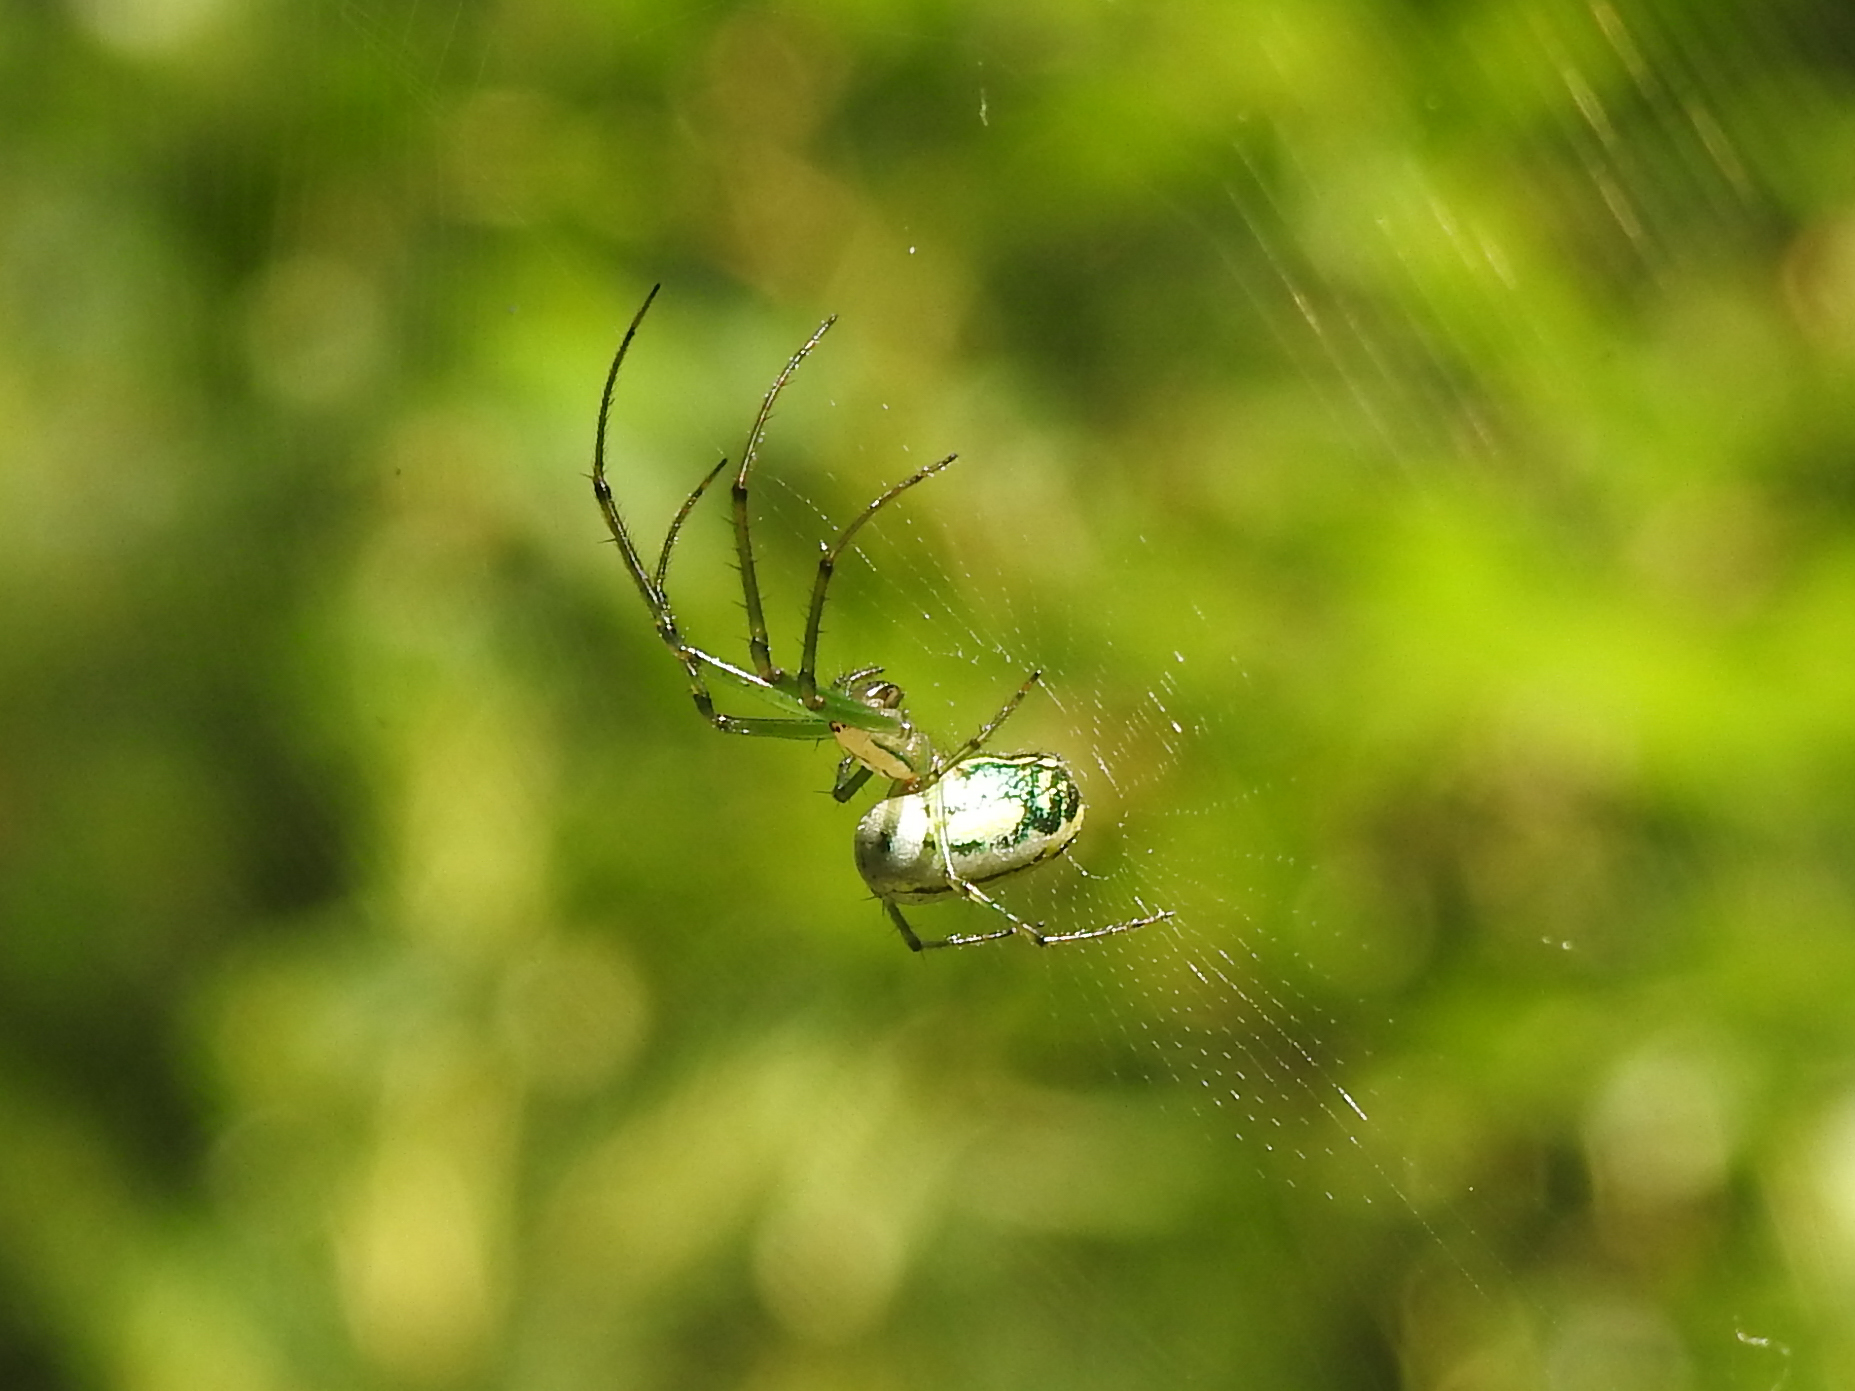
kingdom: Animalia
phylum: Arthropoda
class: Arachnida
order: Araneae
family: Tetragnathidae
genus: Leucauge
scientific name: Leucauge venusta
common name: Longjawed orb weavers
